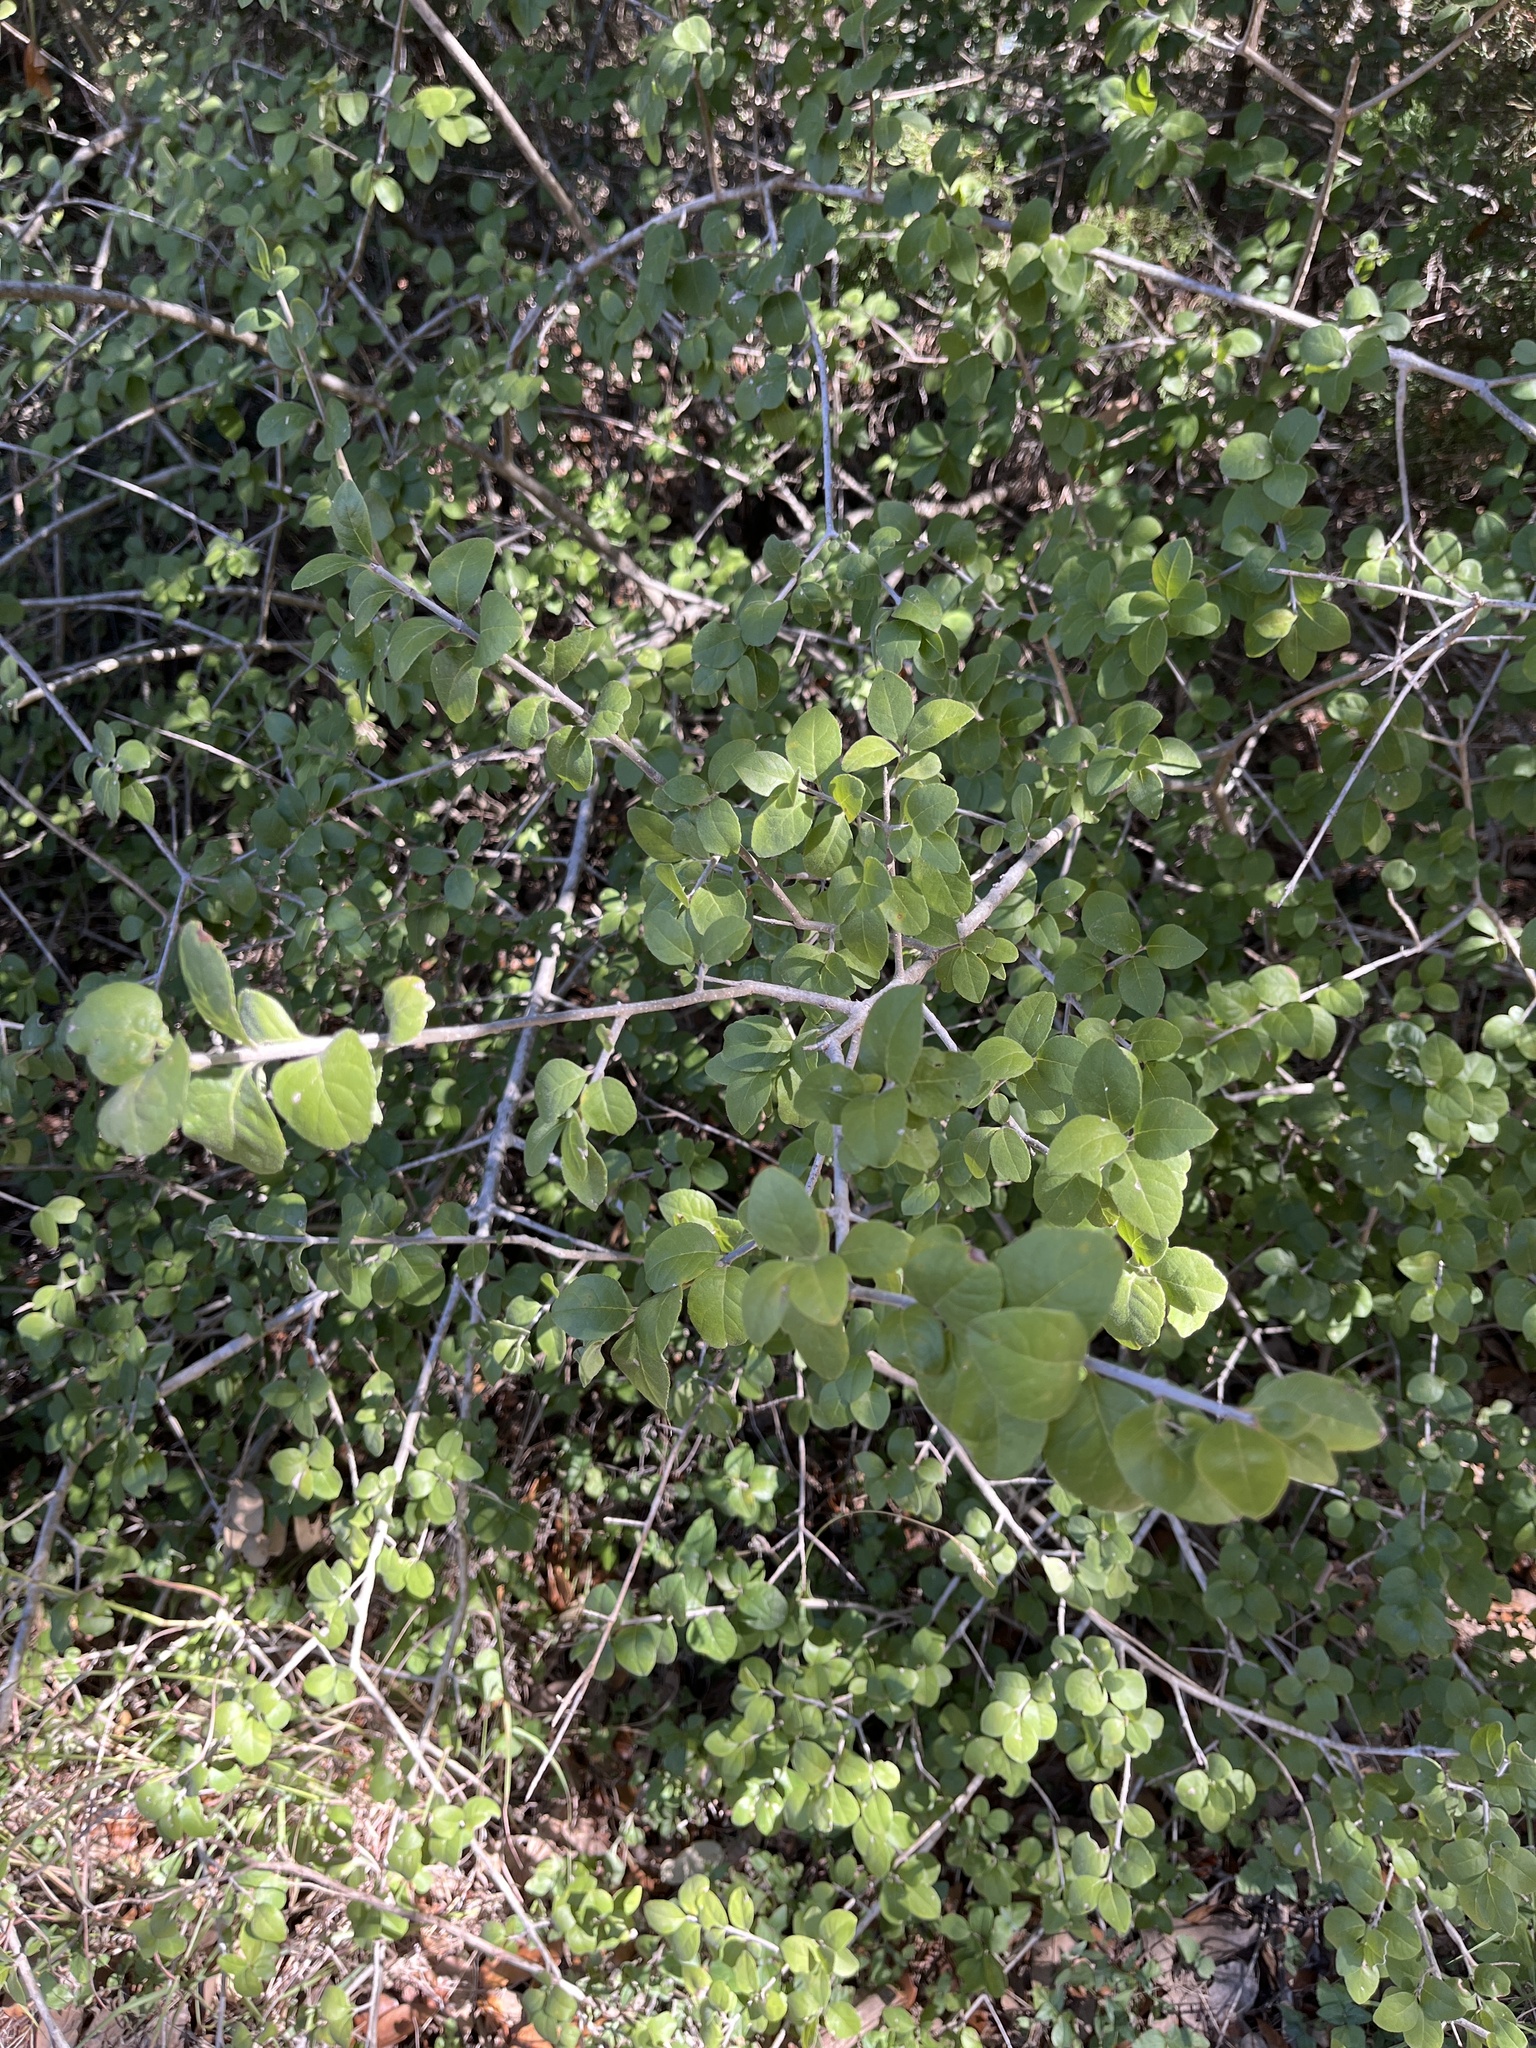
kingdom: Plantae
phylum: Tracheophyta
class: Magnoliopsida
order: Lamiales
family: Oleaceae
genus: Forestiera
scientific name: Forestiera pubescens
